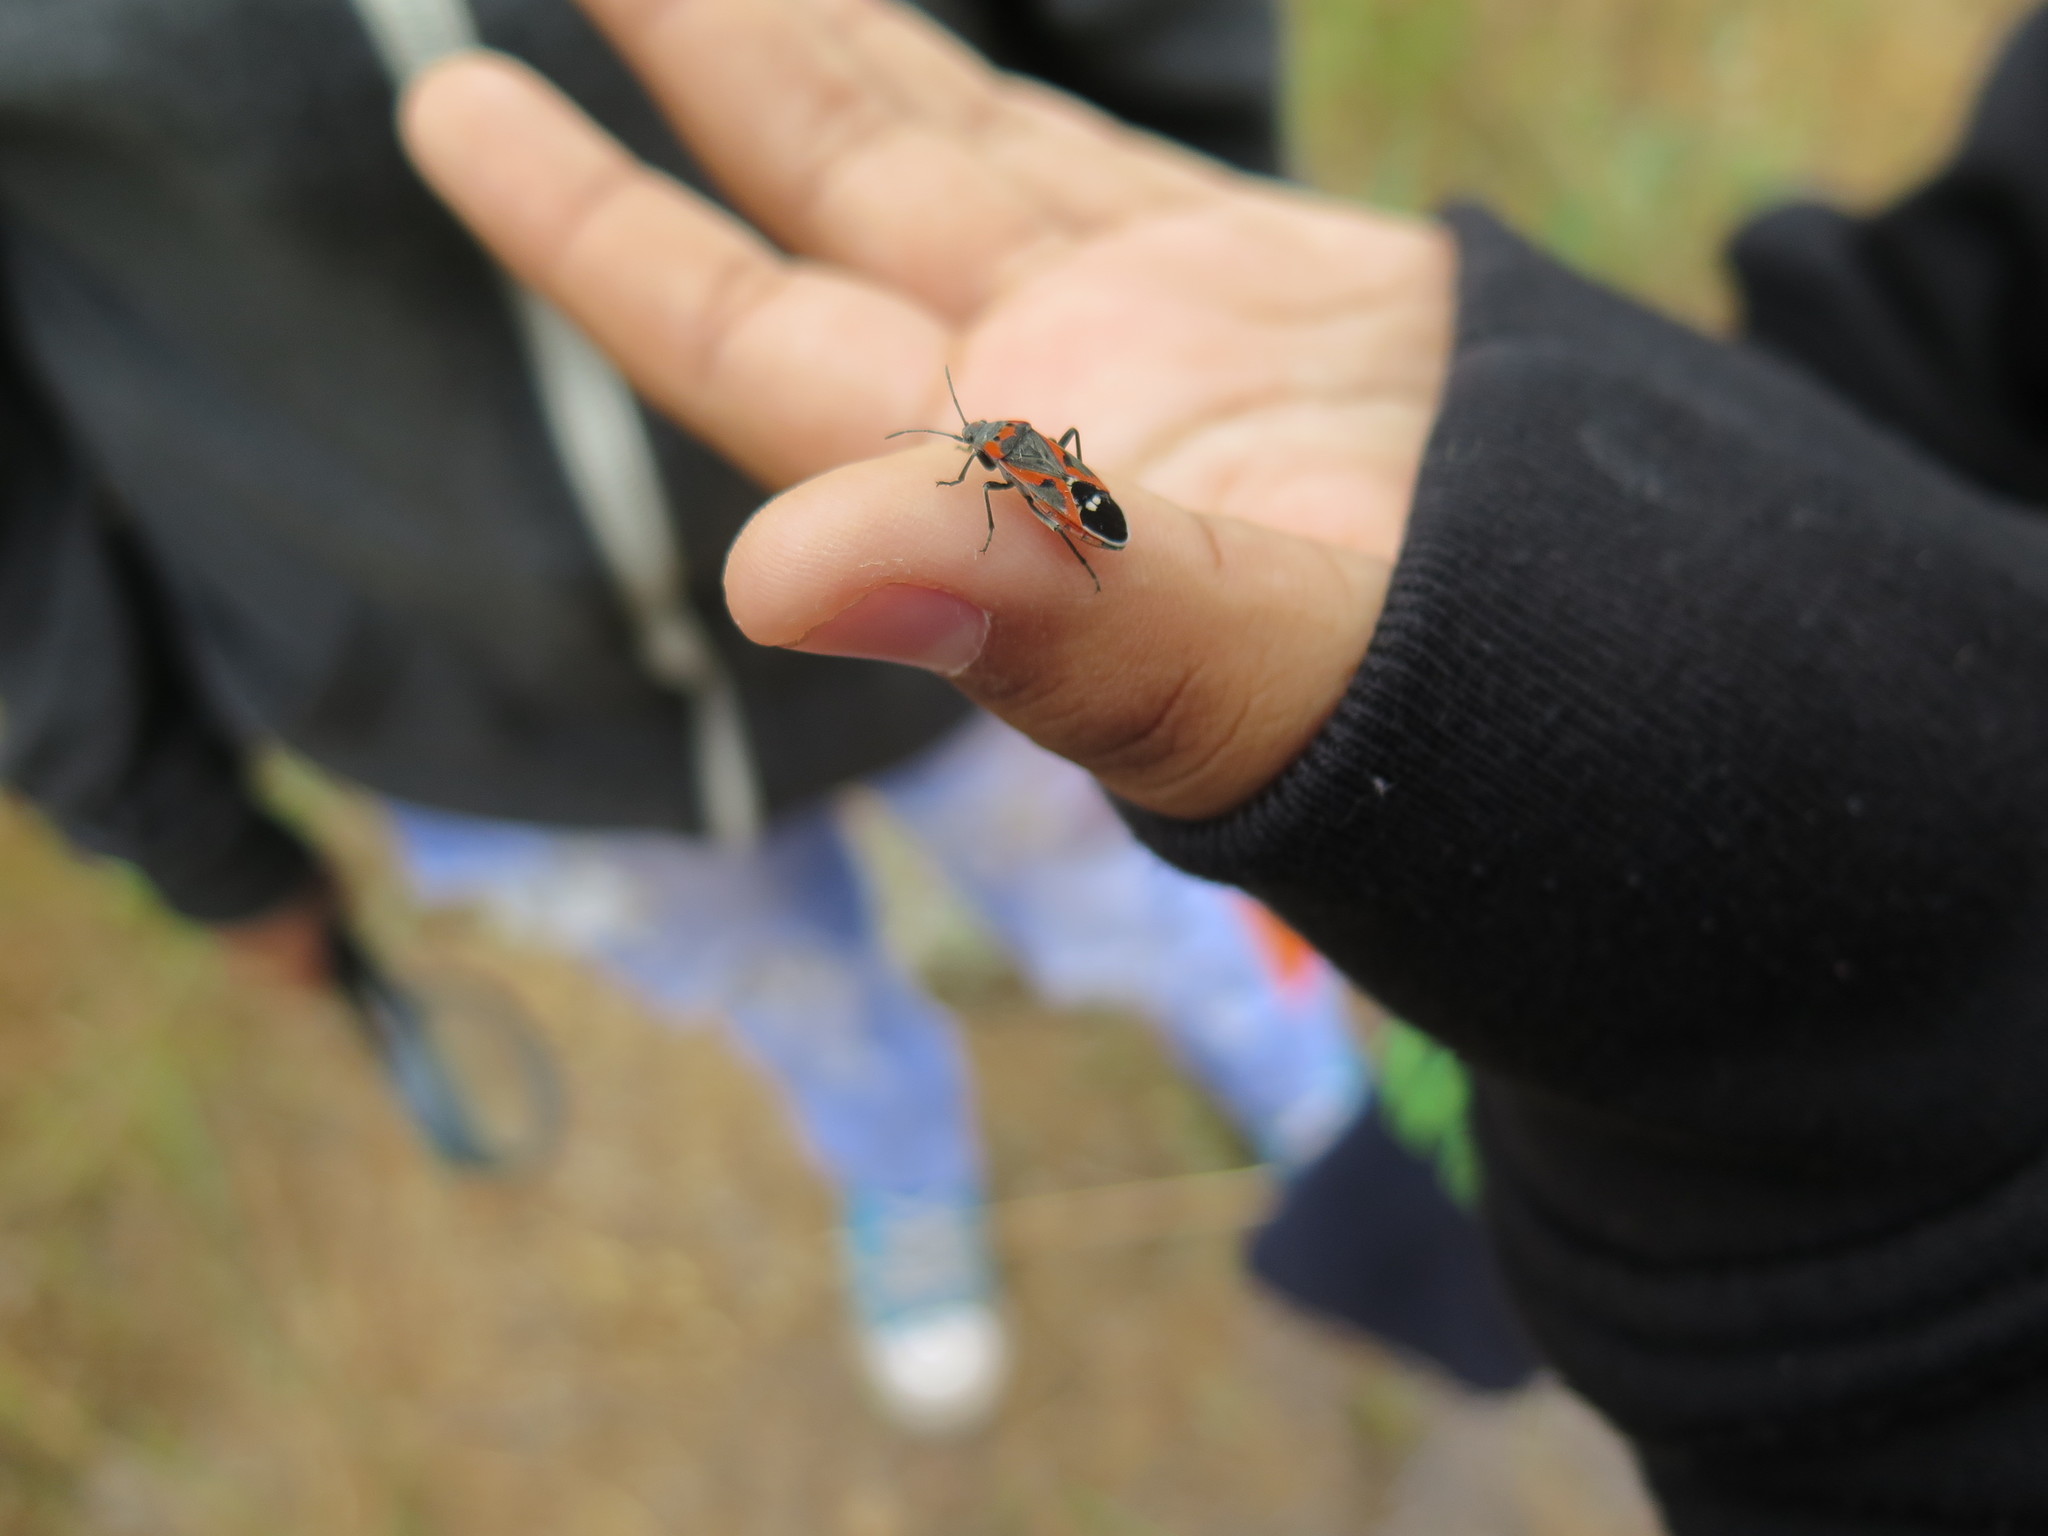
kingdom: Animalia
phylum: Arthropoda
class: Insecta
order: Hemiptera
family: Lygaeidae
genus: Lygaeus
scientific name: Lygaeus kalmii
